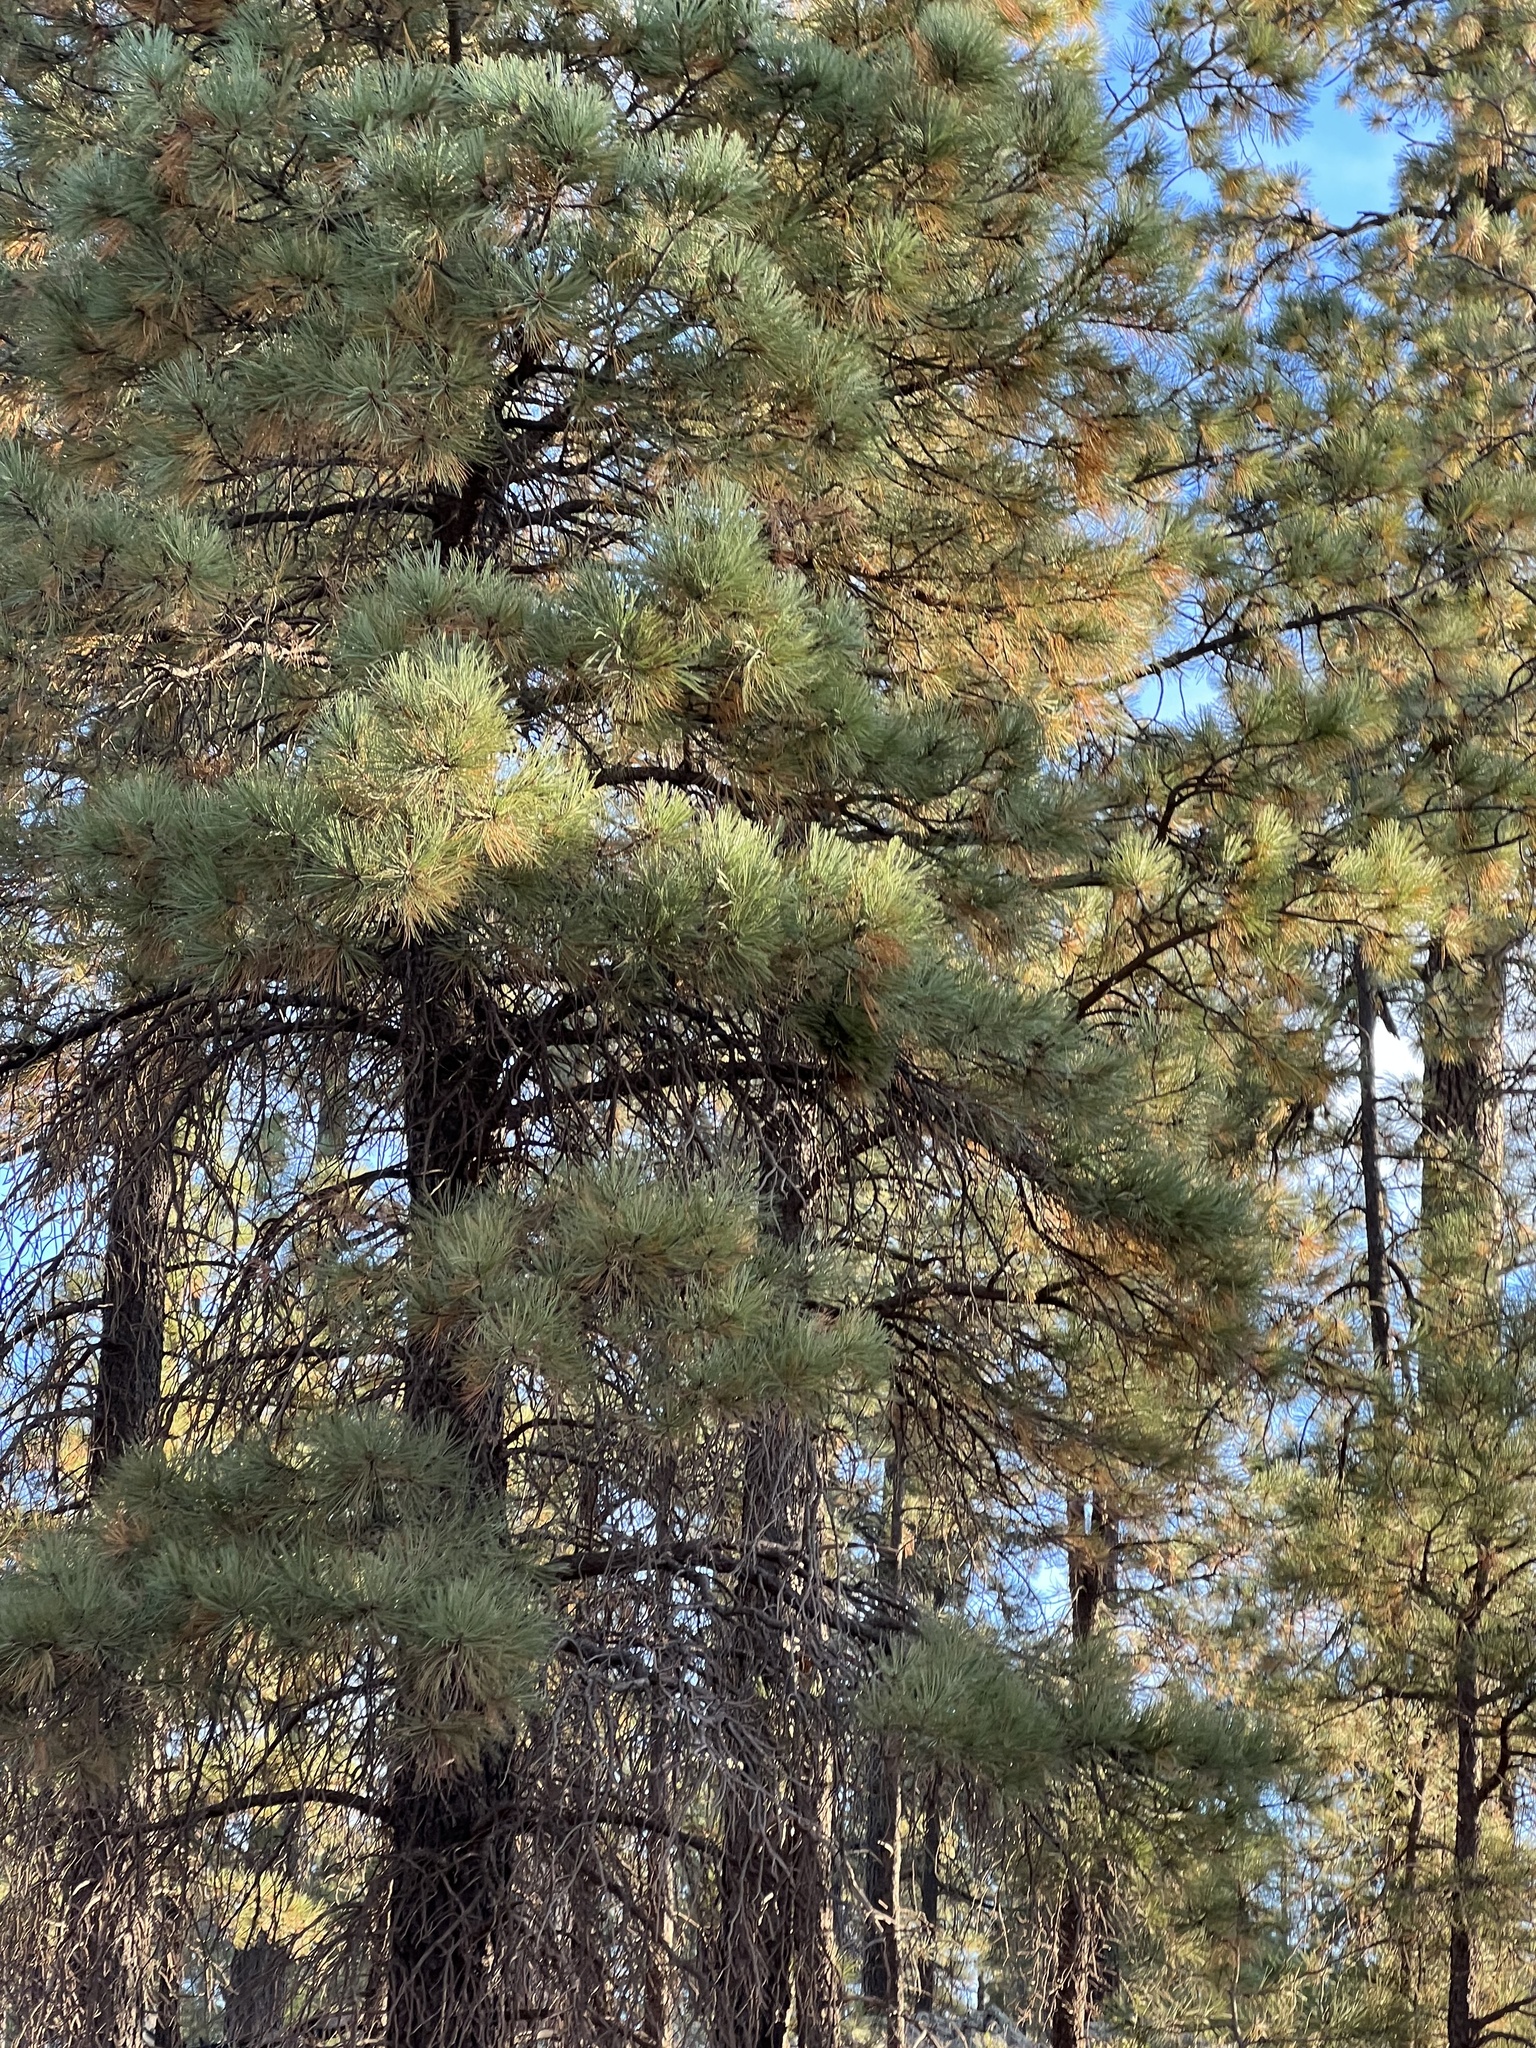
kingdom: Plantae
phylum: Tracheophyta
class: Pinopsida
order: Pinales
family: Pinaceae
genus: Pinus
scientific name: Pinus ponderosa
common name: Western yellow-pine
